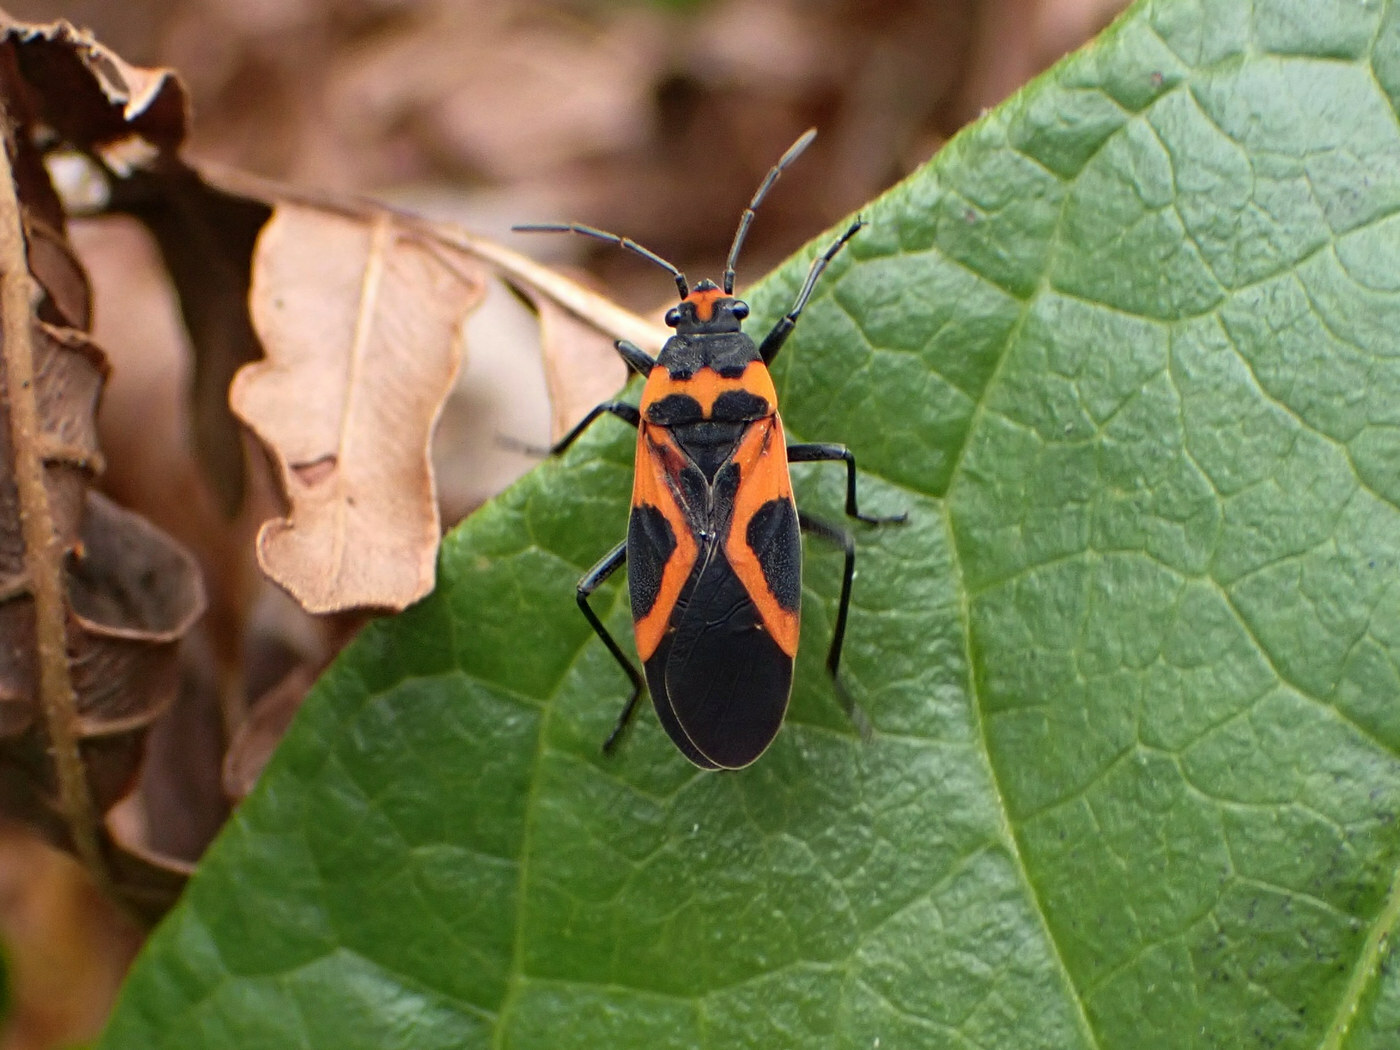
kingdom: Animalia
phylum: Arthropoda
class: Insecta
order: Hemiptera
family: Lygaeidae
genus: Lygaeus
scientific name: Lygaeus turcicus
